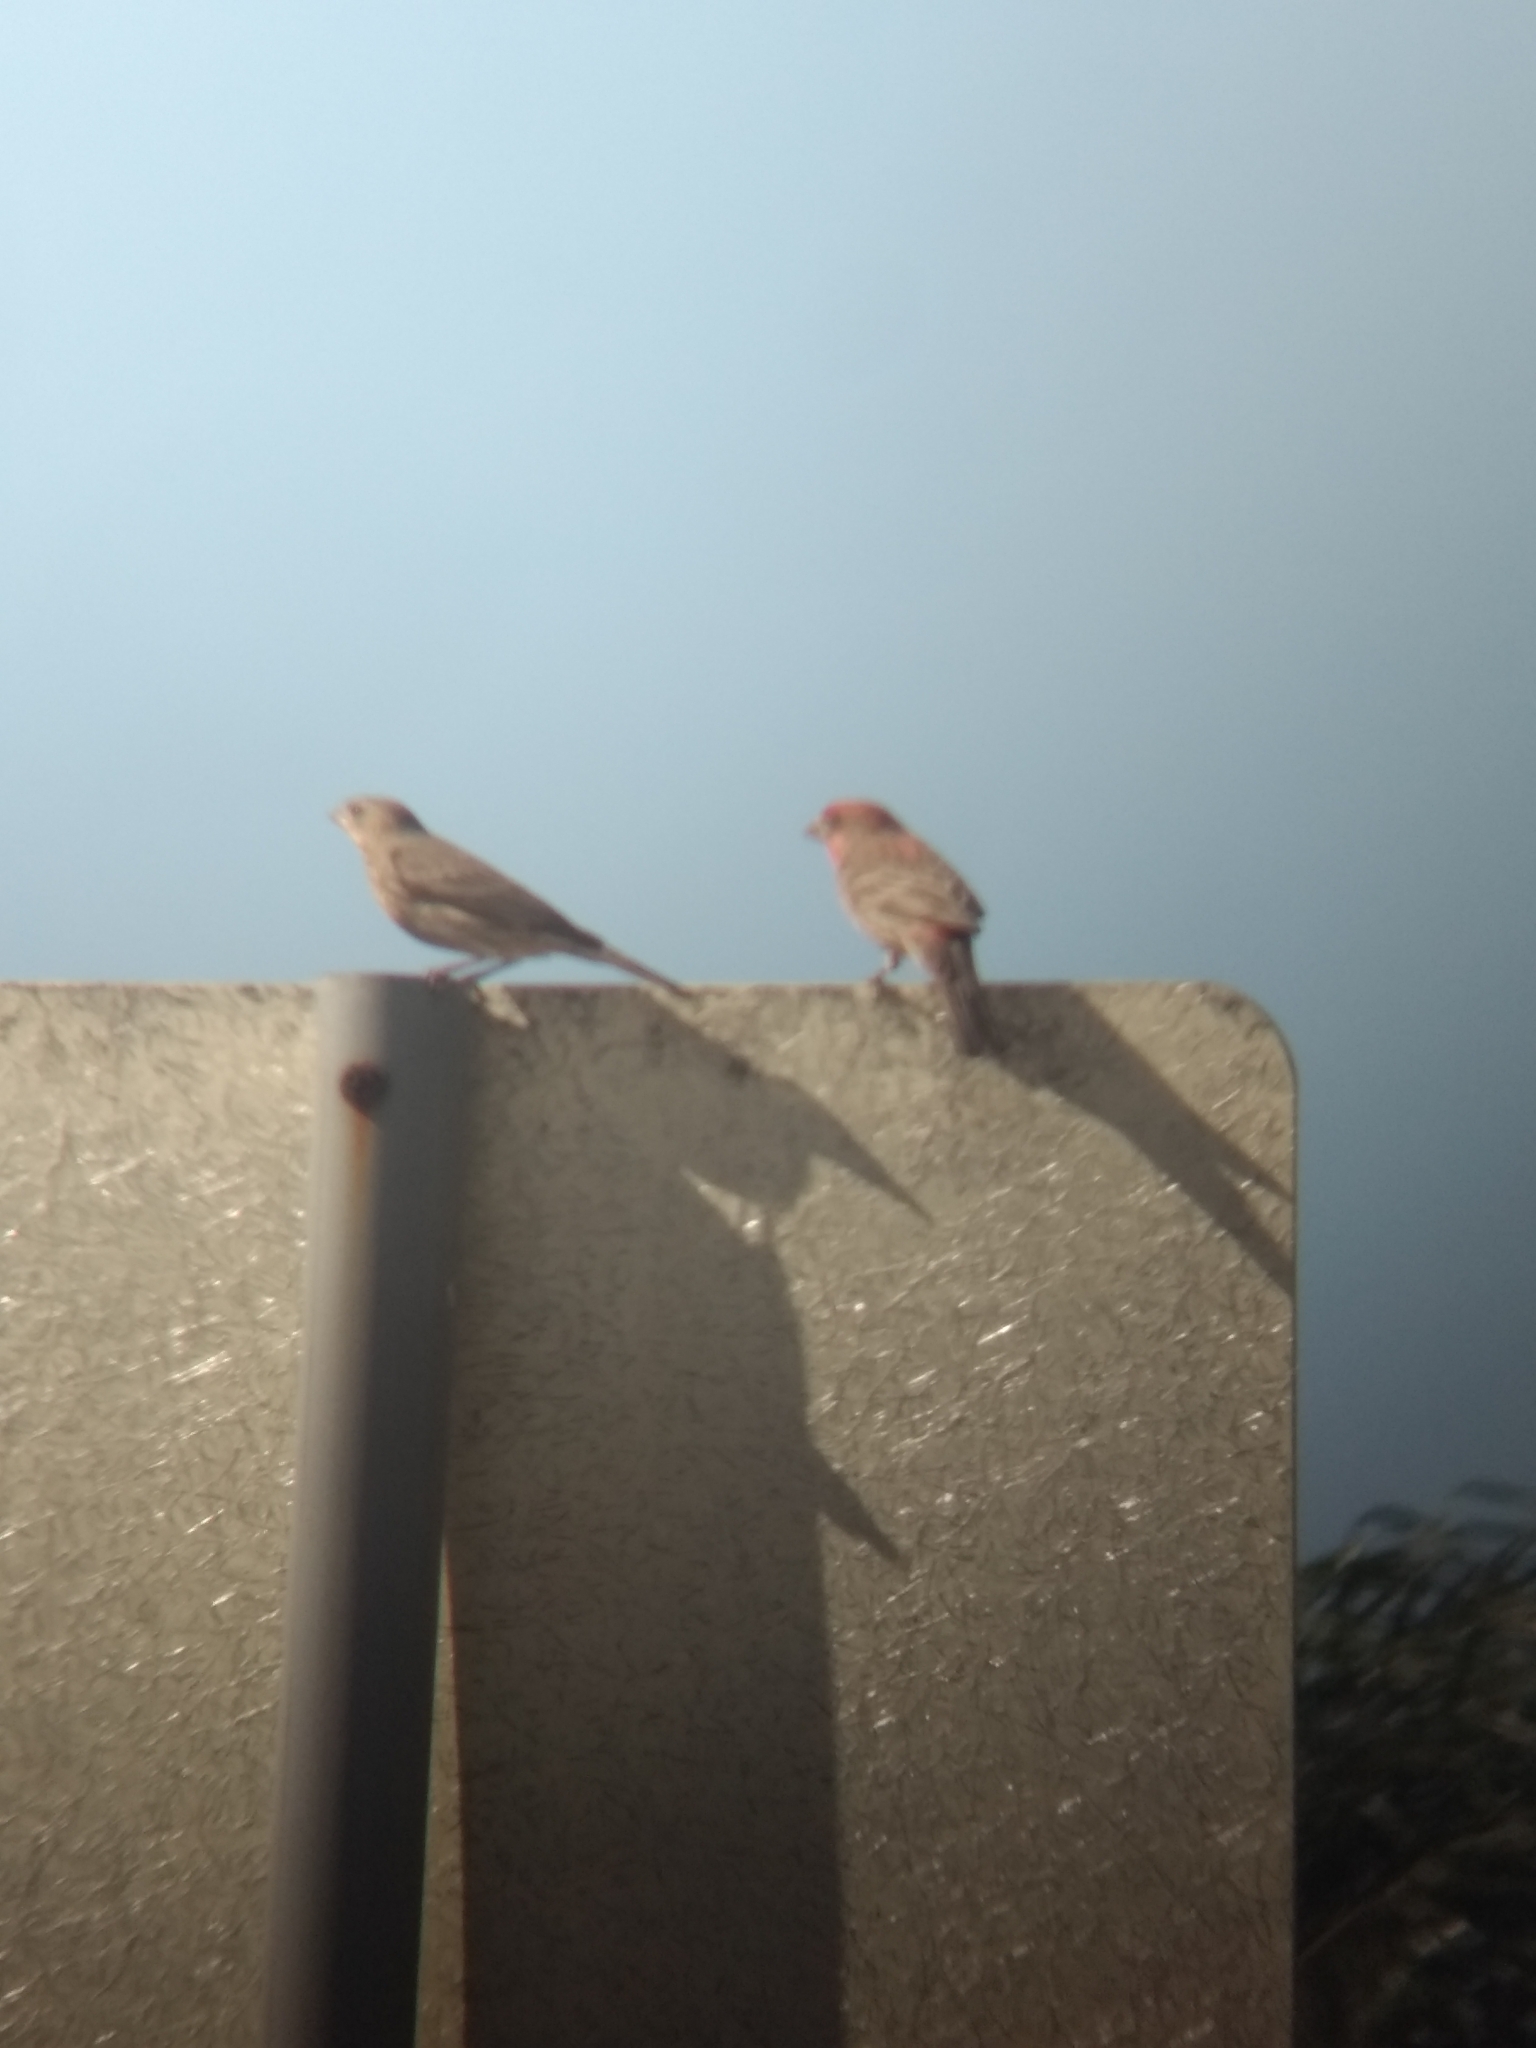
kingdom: Animalia
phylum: Chordata
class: Aves
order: Passeriformes
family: Fringillidae
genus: Haemorhous
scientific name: Haemorhous mexicanus
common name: House finch
